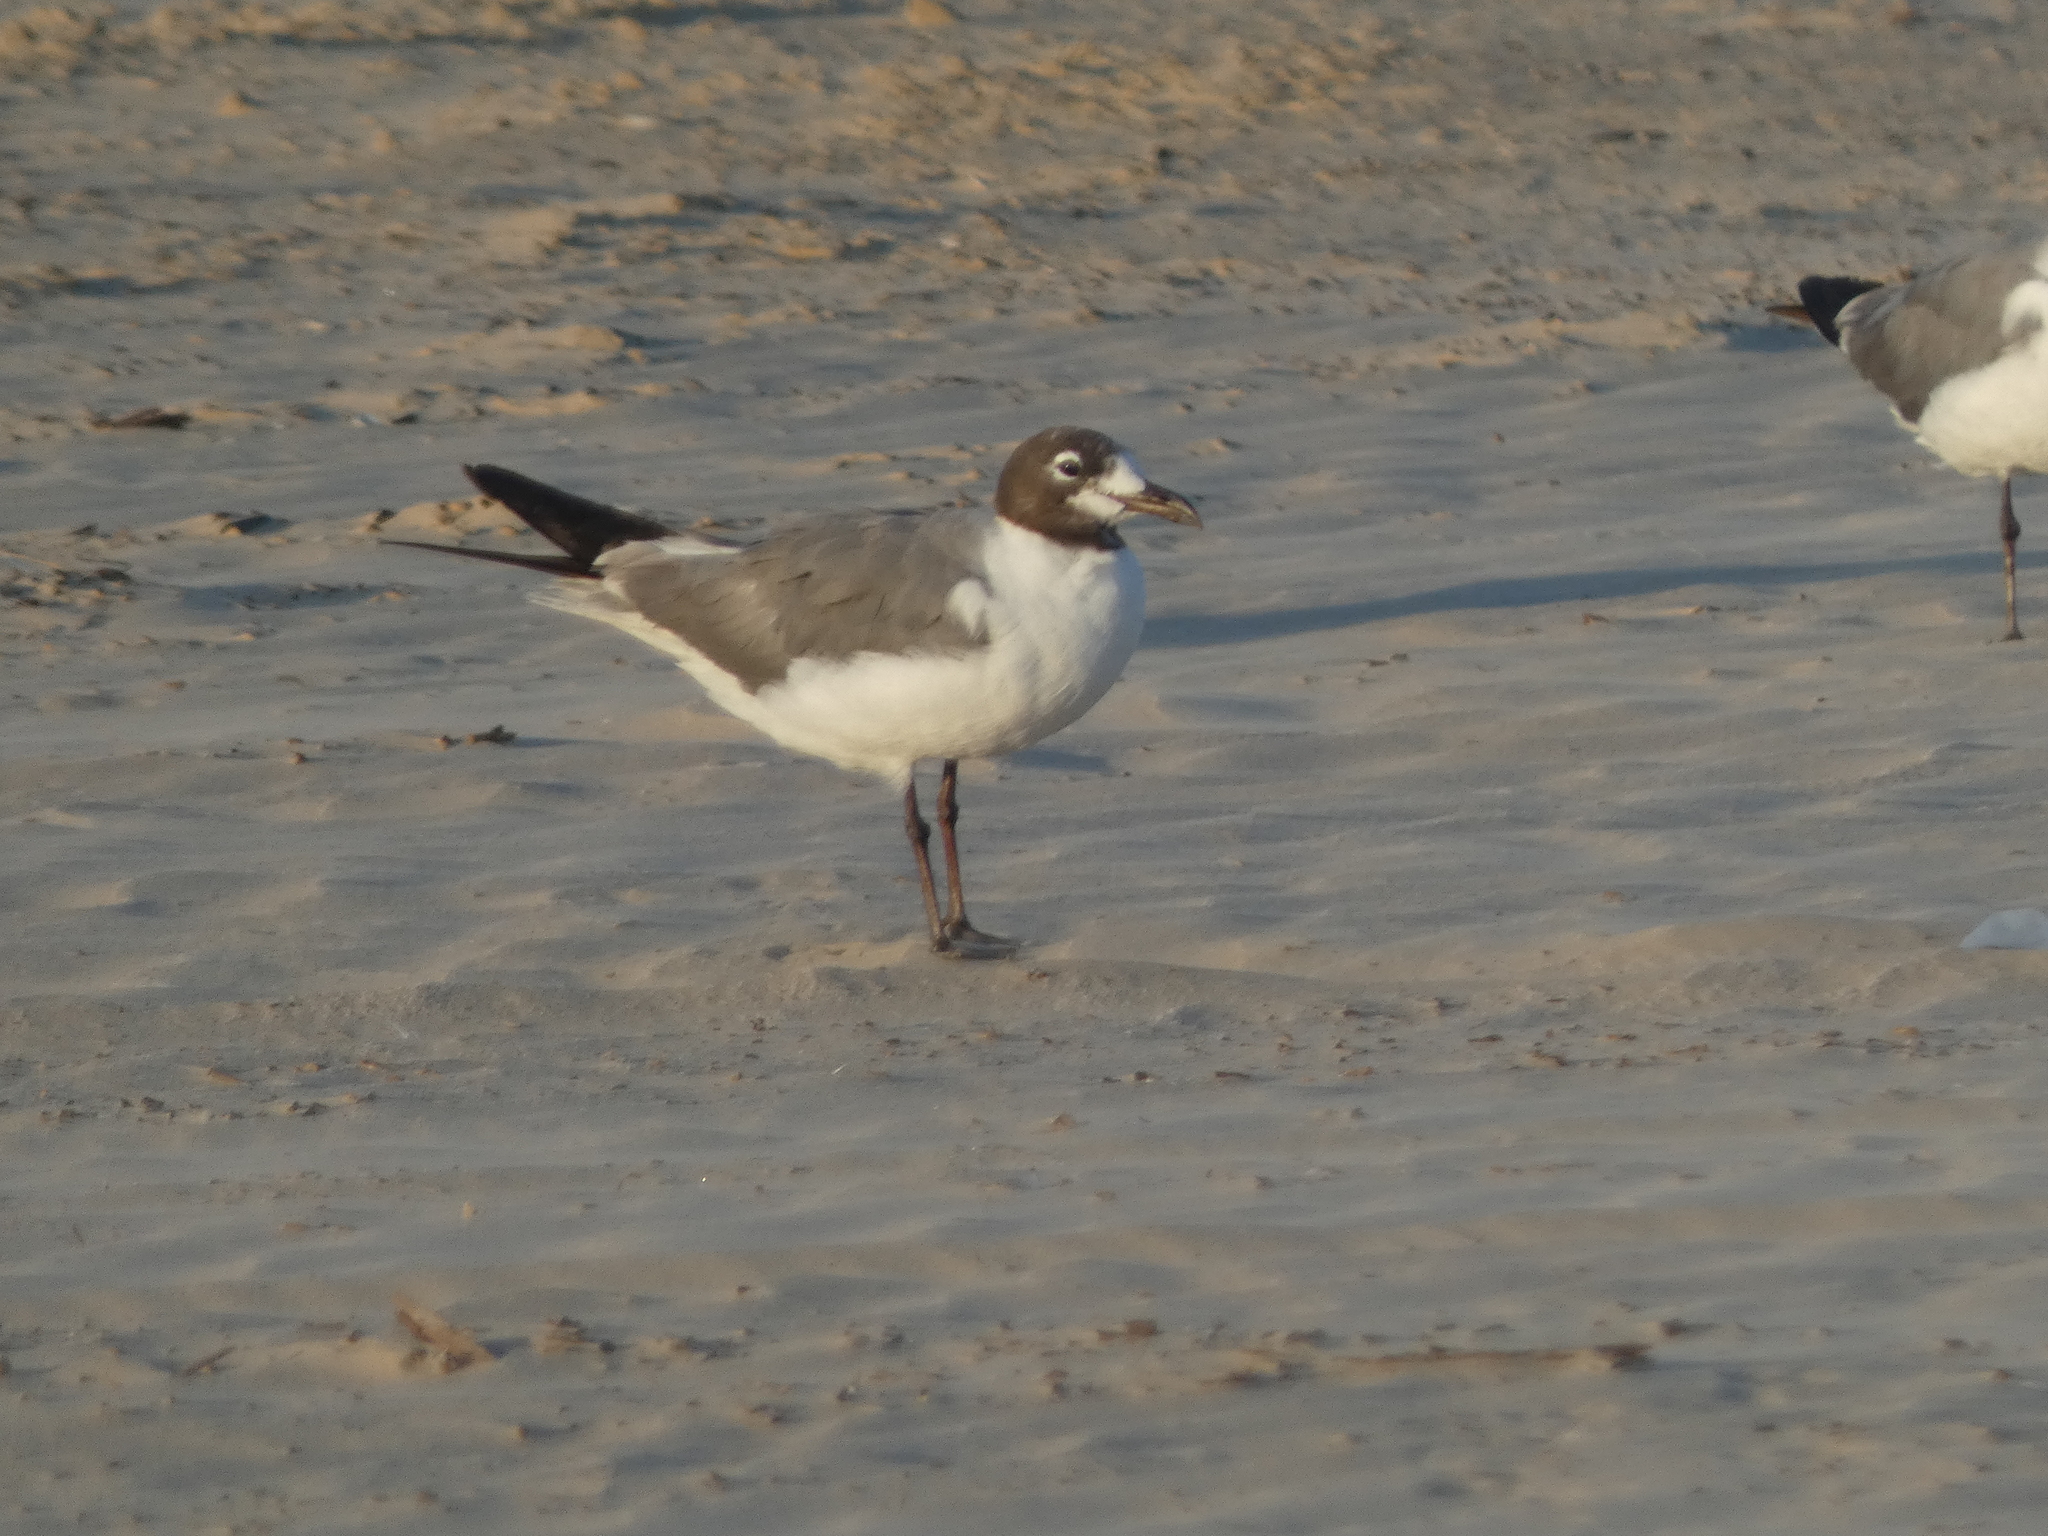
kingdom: Animalia
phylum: Chordata
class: Aves
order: Charadriiformes
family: Laridae
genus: Leucophaeus
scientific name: Leucophaeus atricilla
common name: Laughing gull
